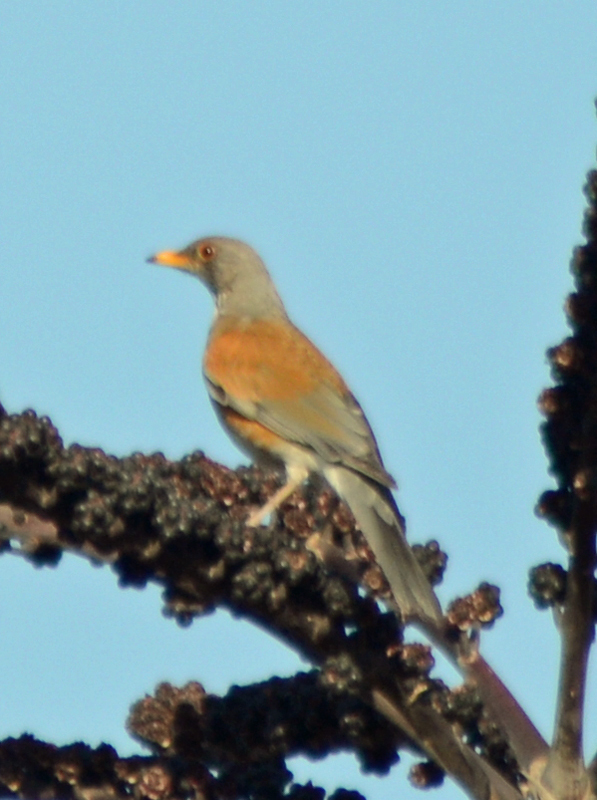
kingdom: Animalia
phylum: Chordata
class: Aves
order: Passeriformes
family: Turdidae
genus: Turdus
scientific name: Turdus rufopalliatus
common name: Rufous-backed robin
